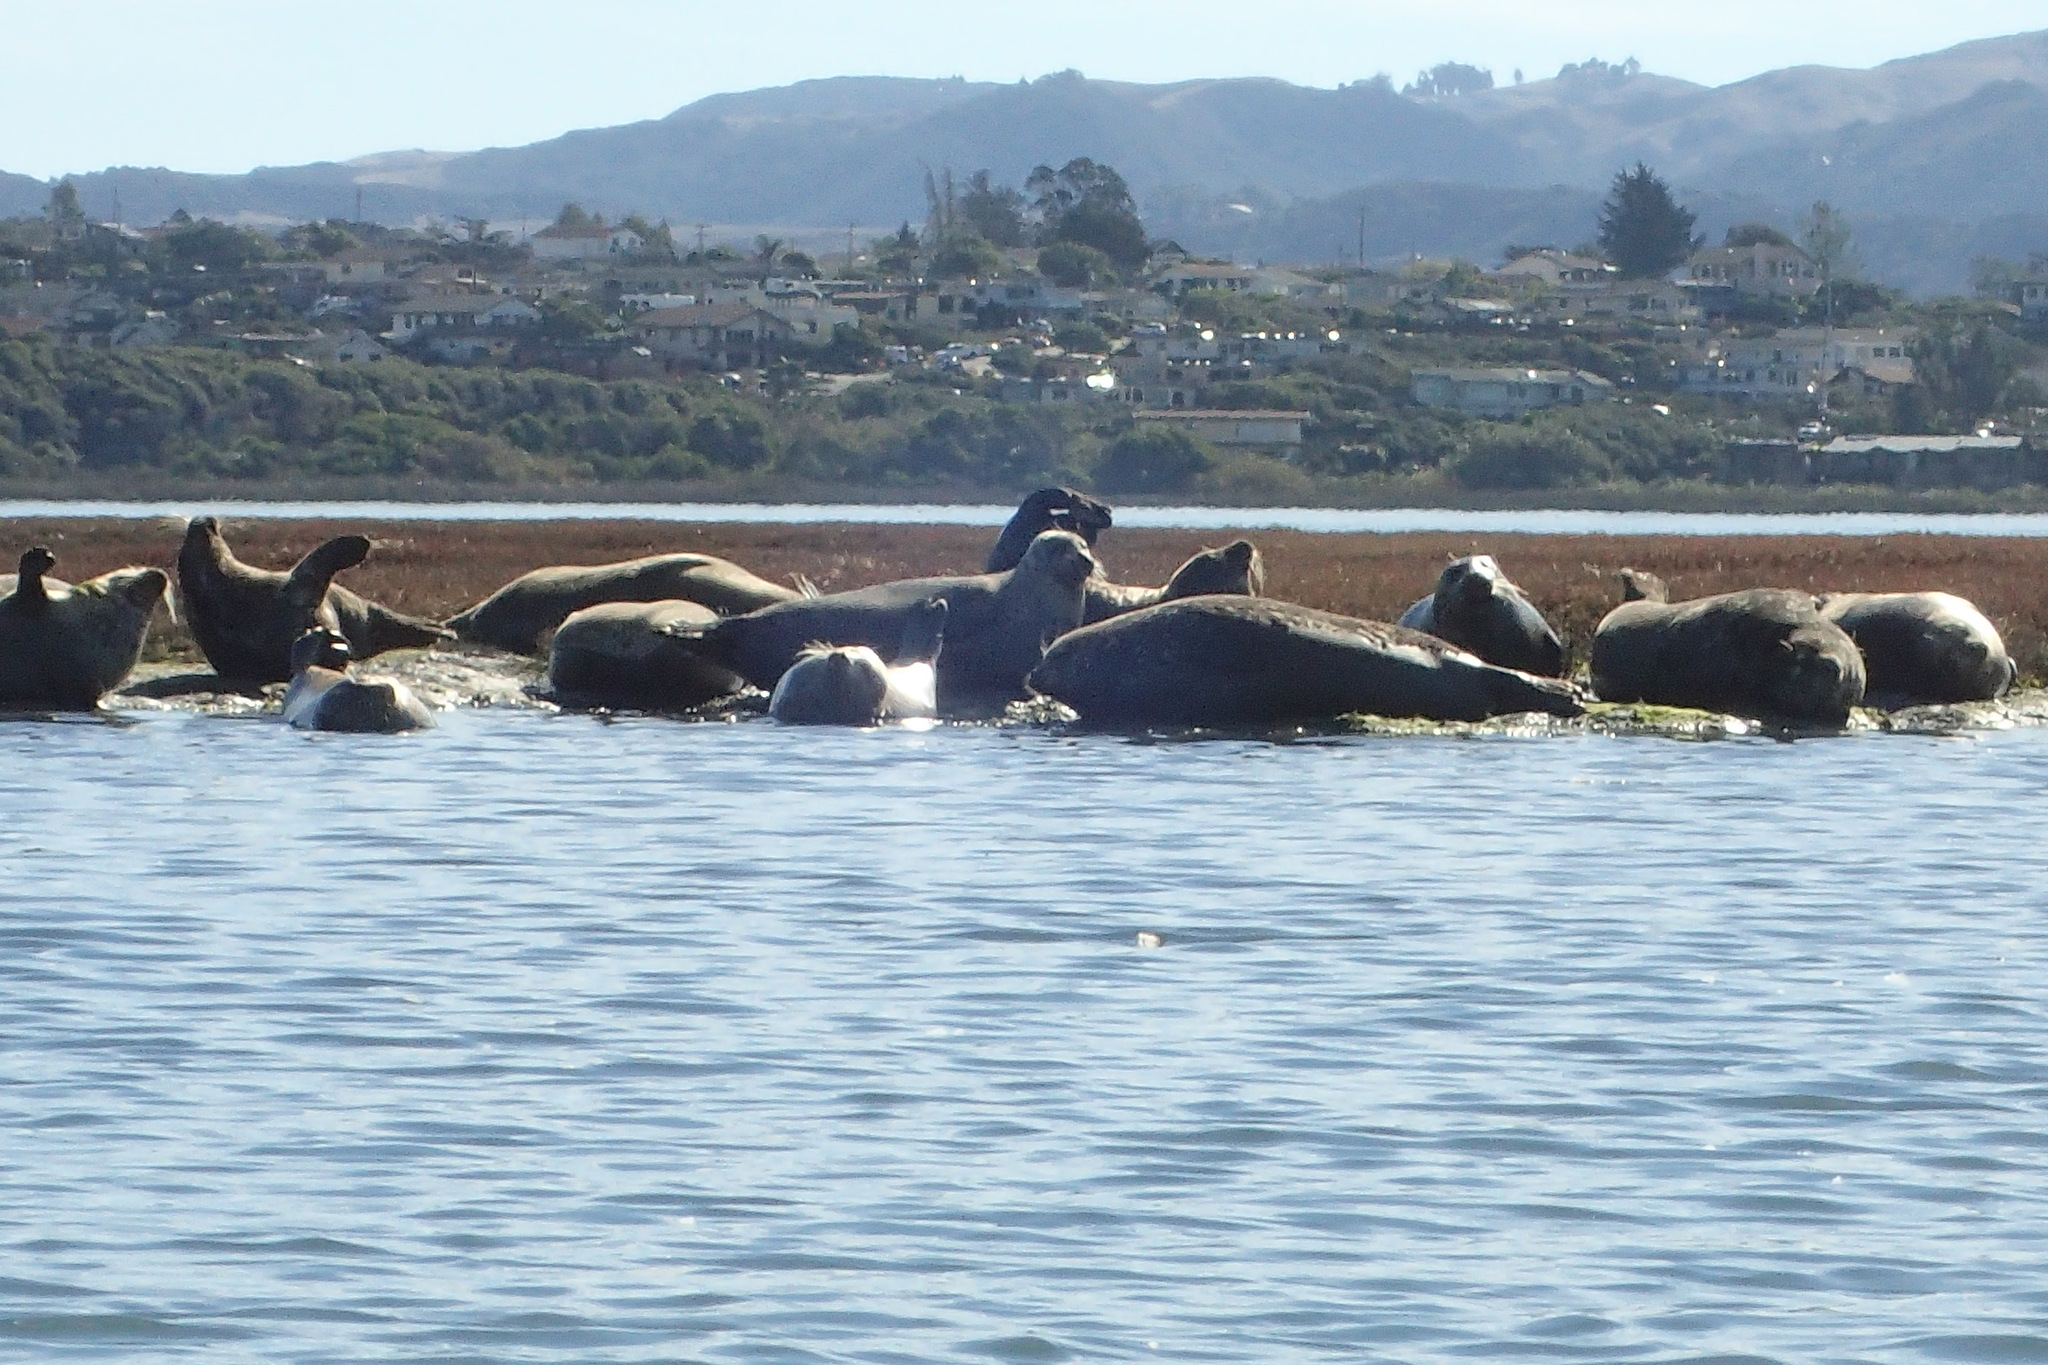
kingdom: Animalia
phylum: Chordata
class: Mammalia
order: Carnivora
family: Phocidae
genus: Phoca
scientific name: Phoca vitulina
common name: Harbor seal
